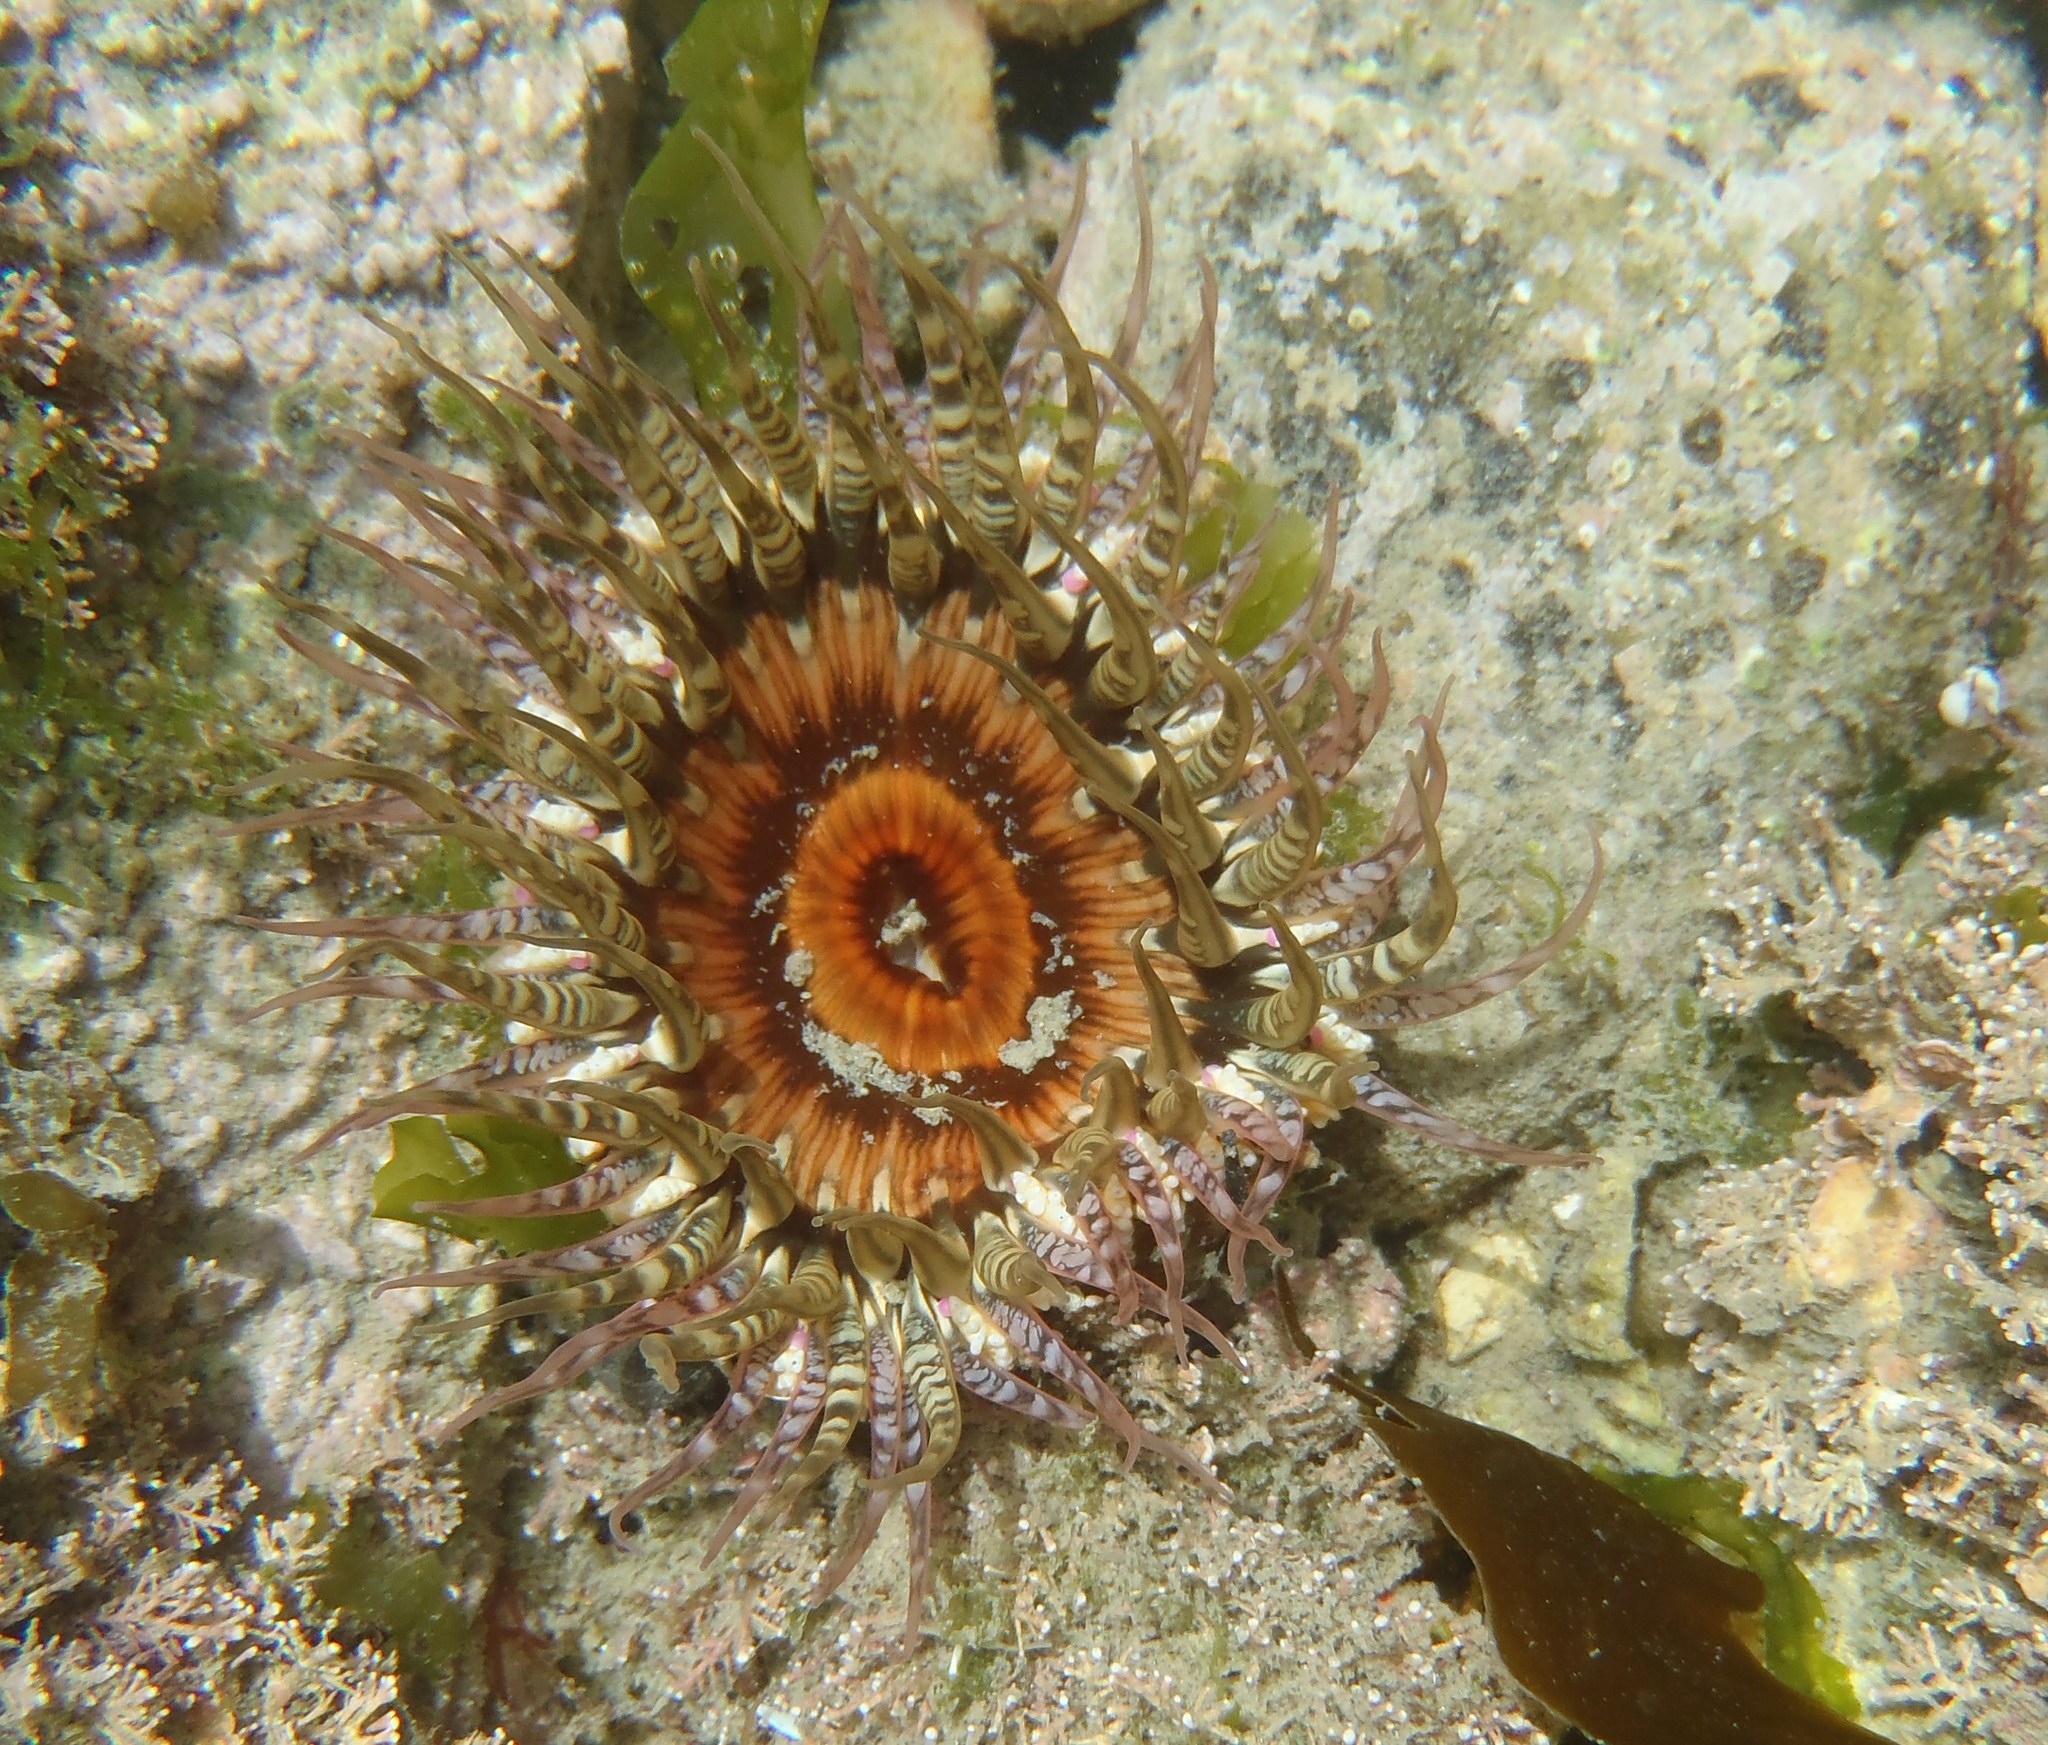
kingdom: Animalia
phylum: Cnidaria
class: Anthozoa
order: Actiniaria
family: Actiniidae
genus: Oulactis
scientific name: Oulactis muscosa
